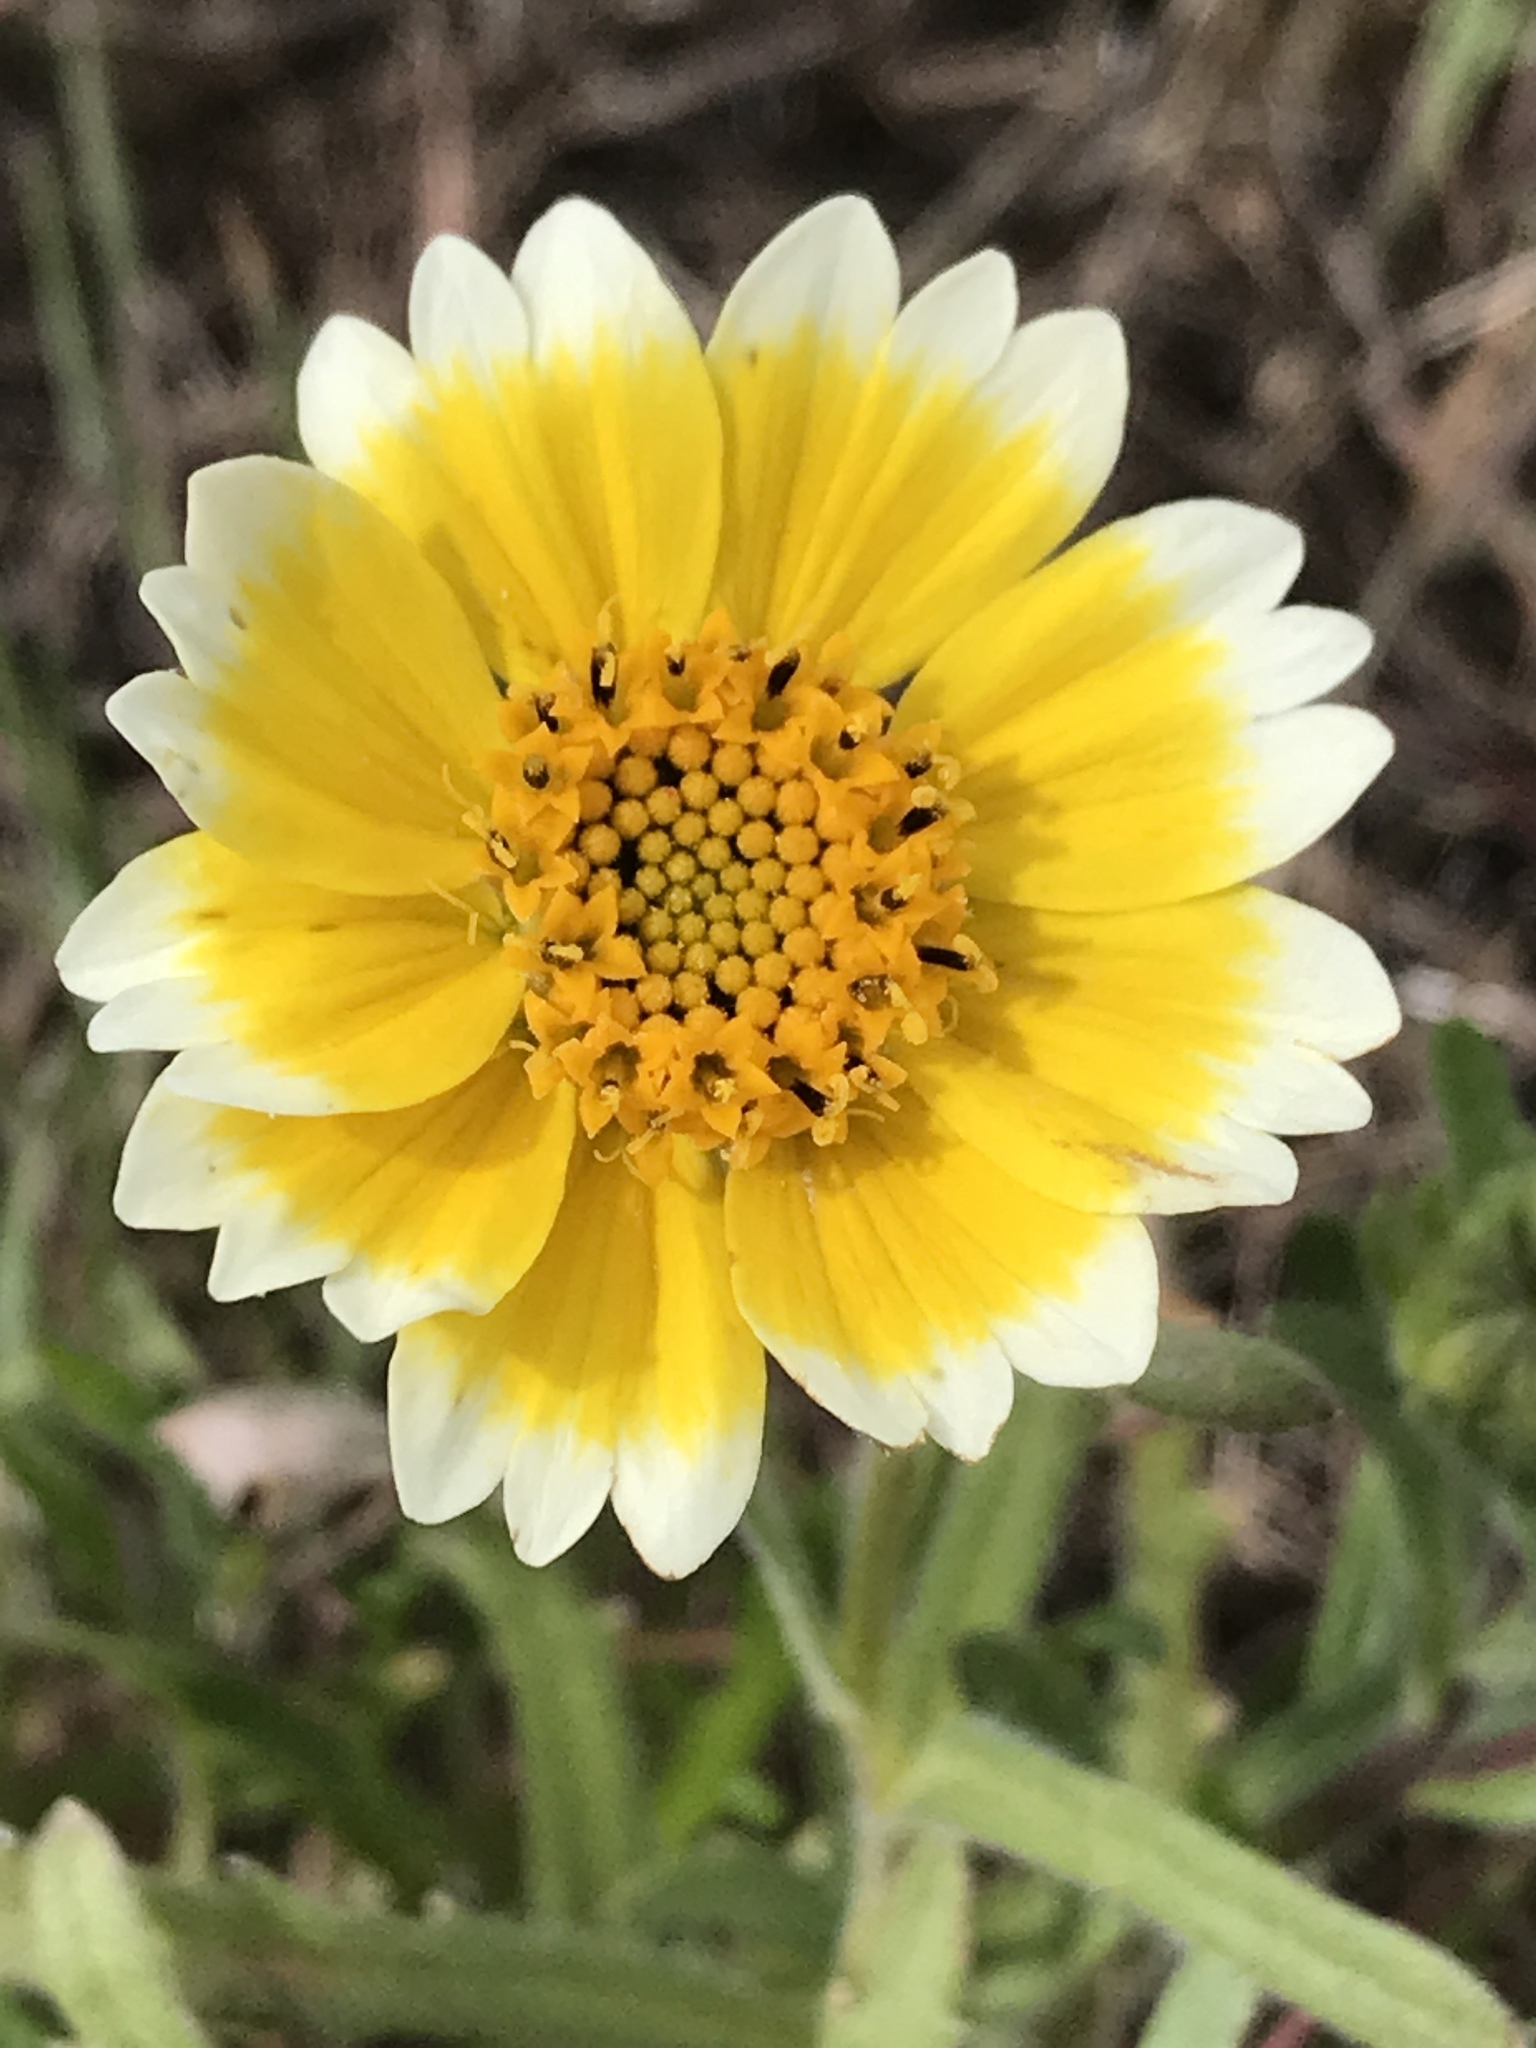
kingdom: Plantae
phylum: Tracheophyta
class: Magnoliopsida
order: Asterales
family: Asteraceae
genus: Layia
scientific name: Layia platyglossa
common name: Tidy-tips
